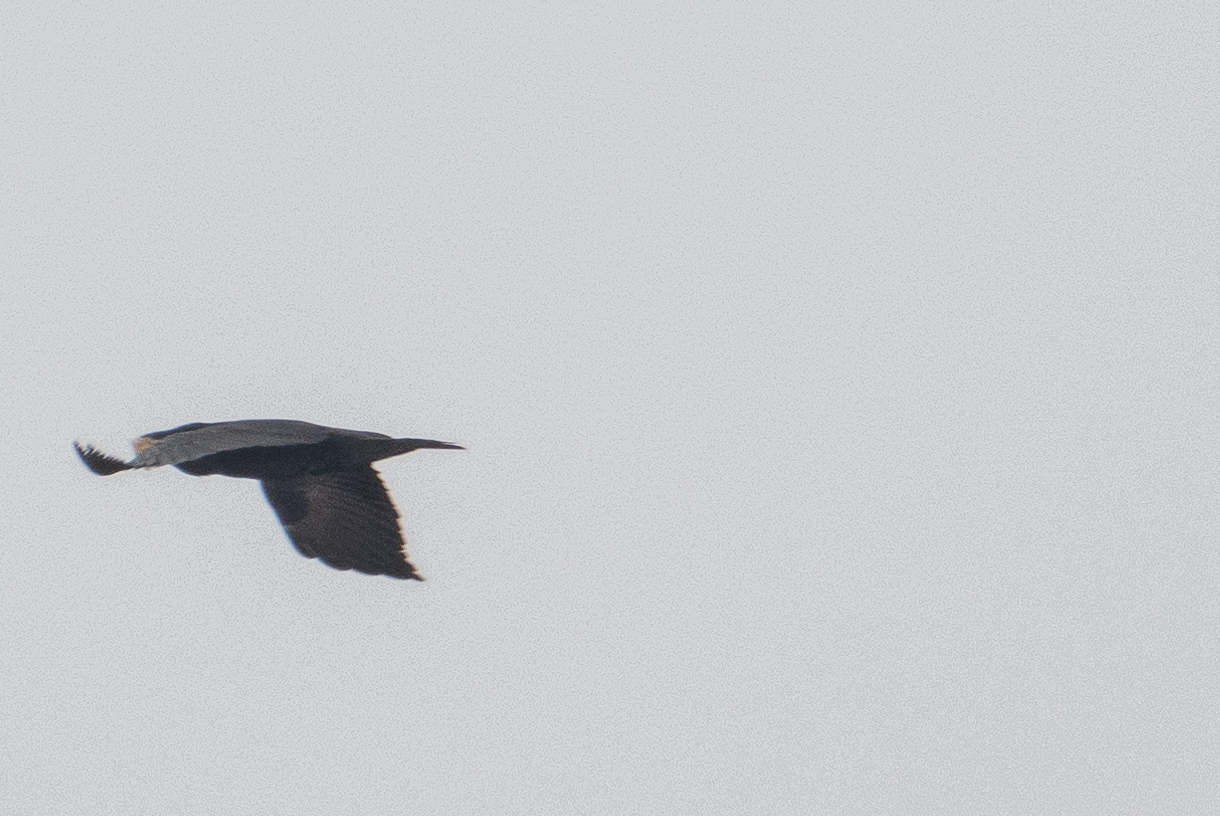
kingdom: Animalia
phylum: Chordata
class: Aves
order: Passeriformes
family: Corvidae
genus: Corvus
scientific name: Corvus corax
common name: Common raven
